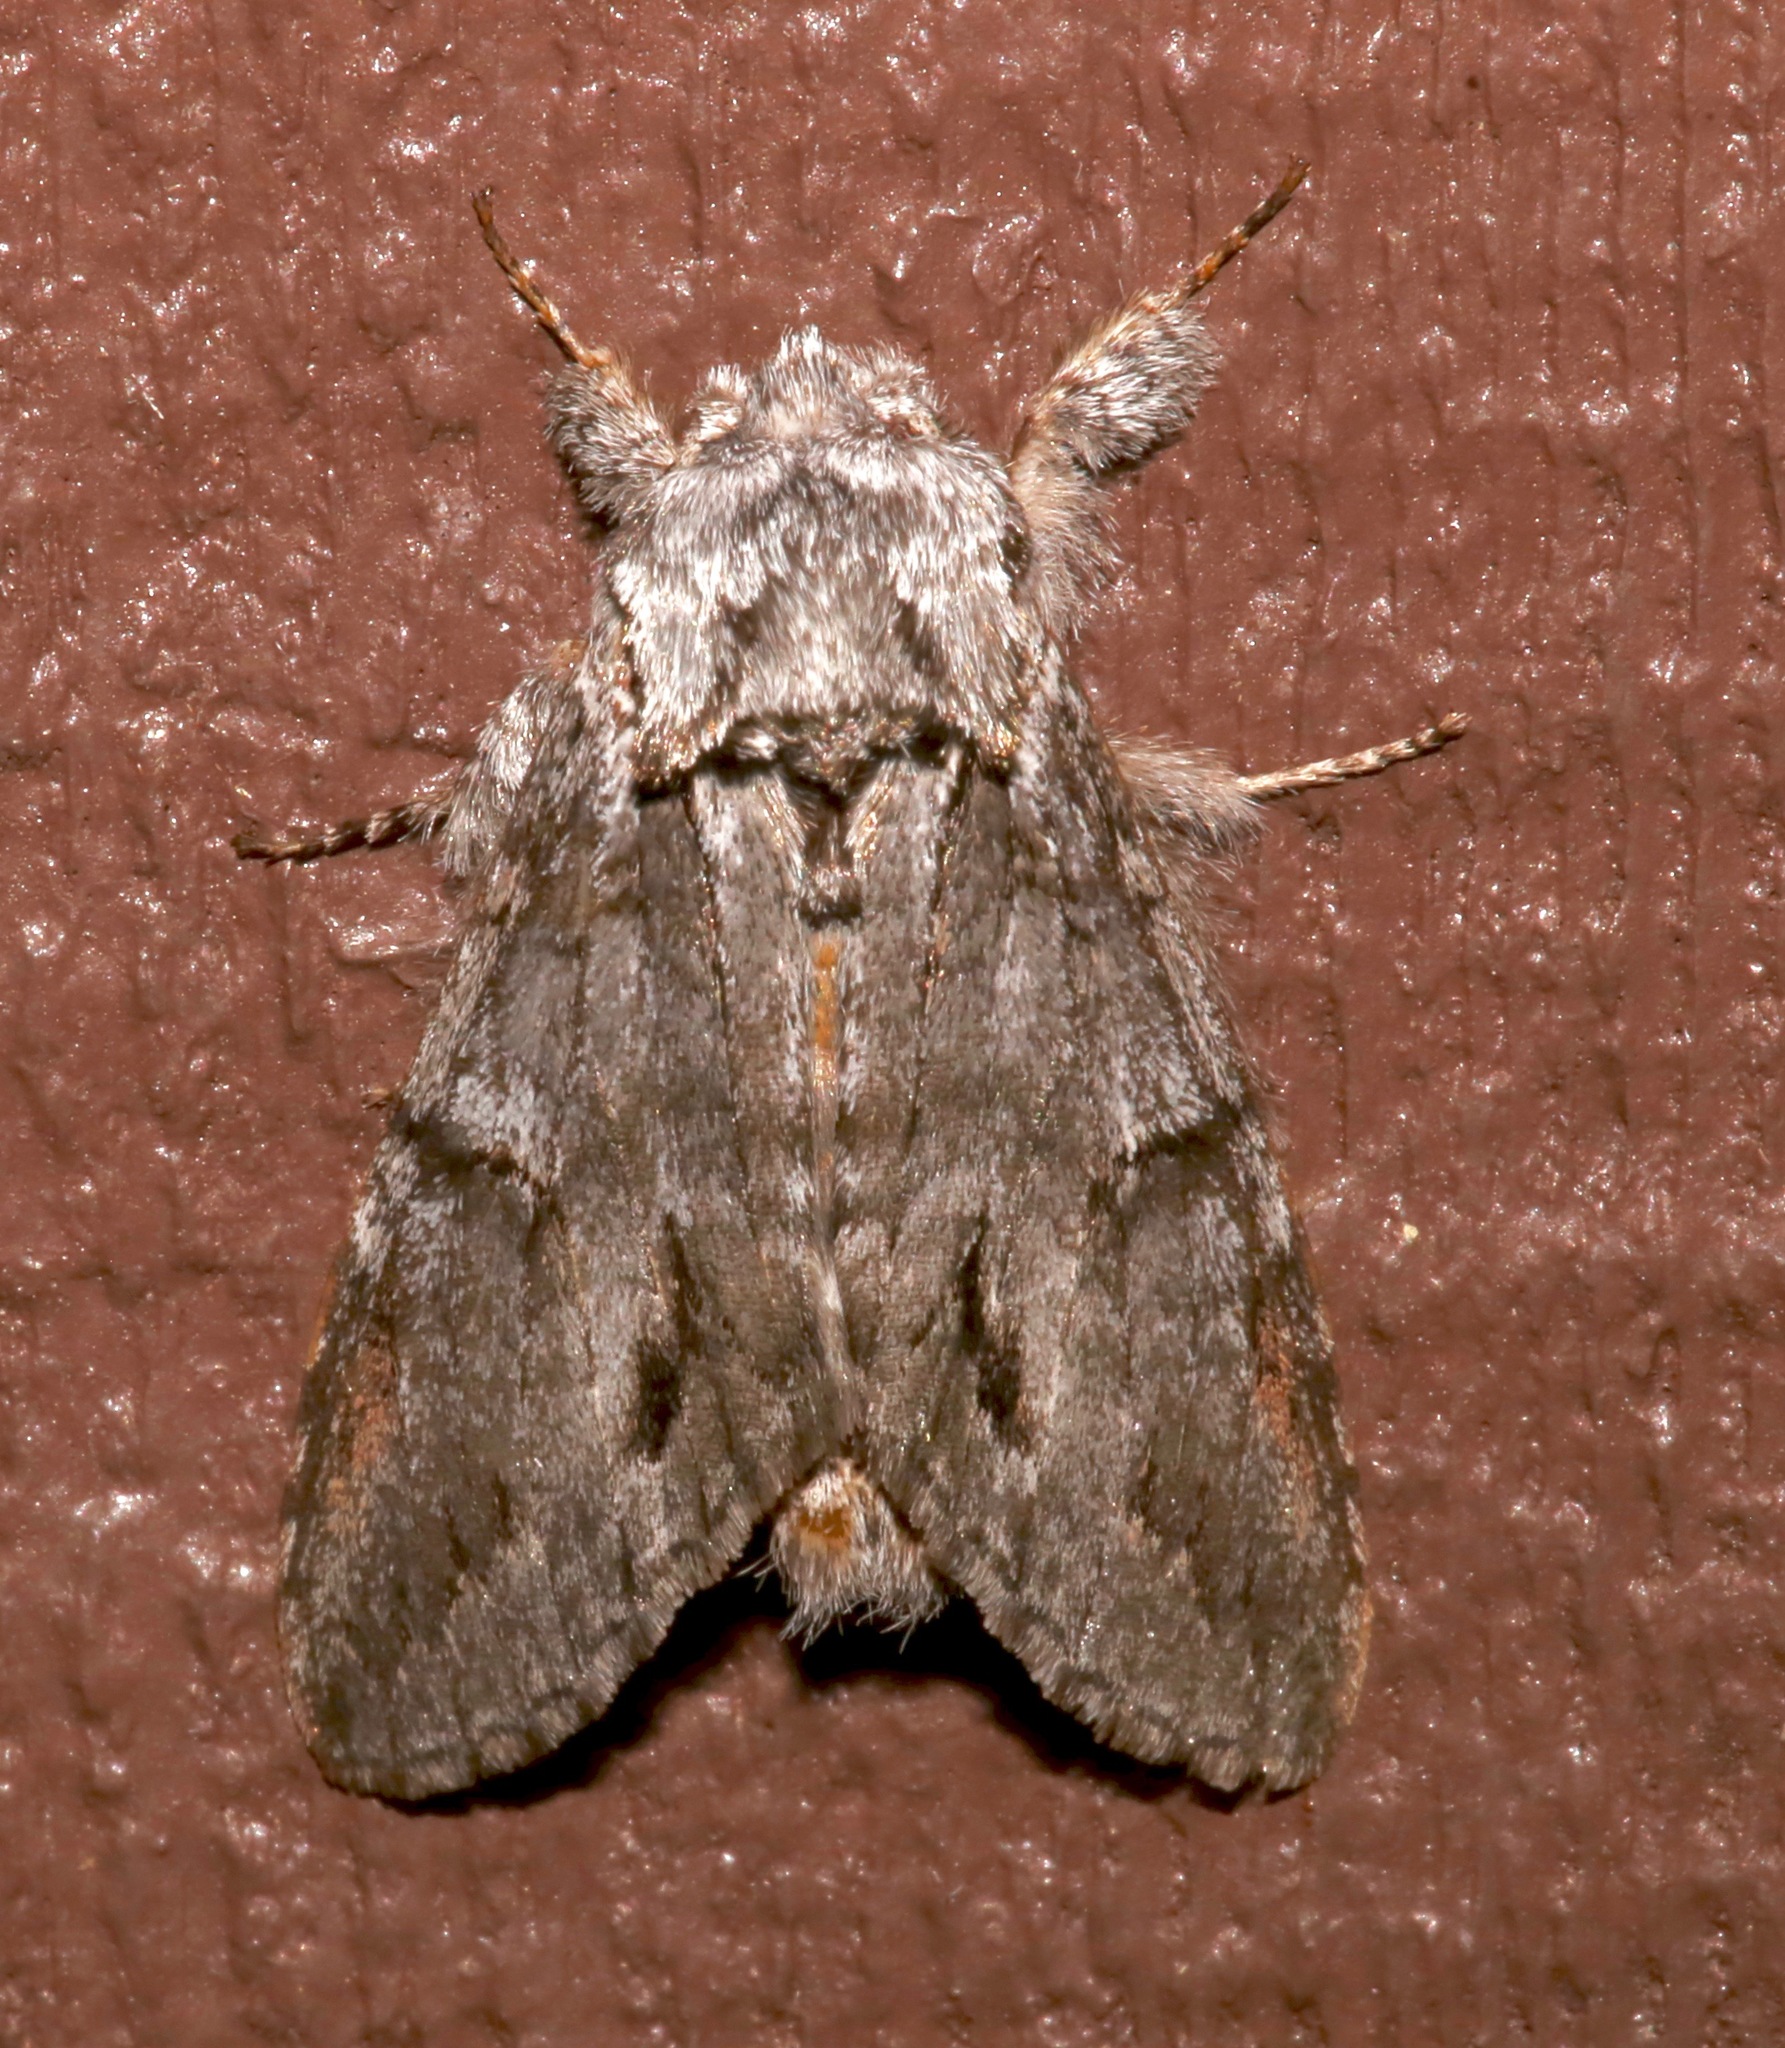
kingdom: Animalia
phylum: Arthropoda
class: Insecta
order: Lepidoptera
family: Notodontidae
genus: Macrurocampa
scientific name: Macrurocampa
